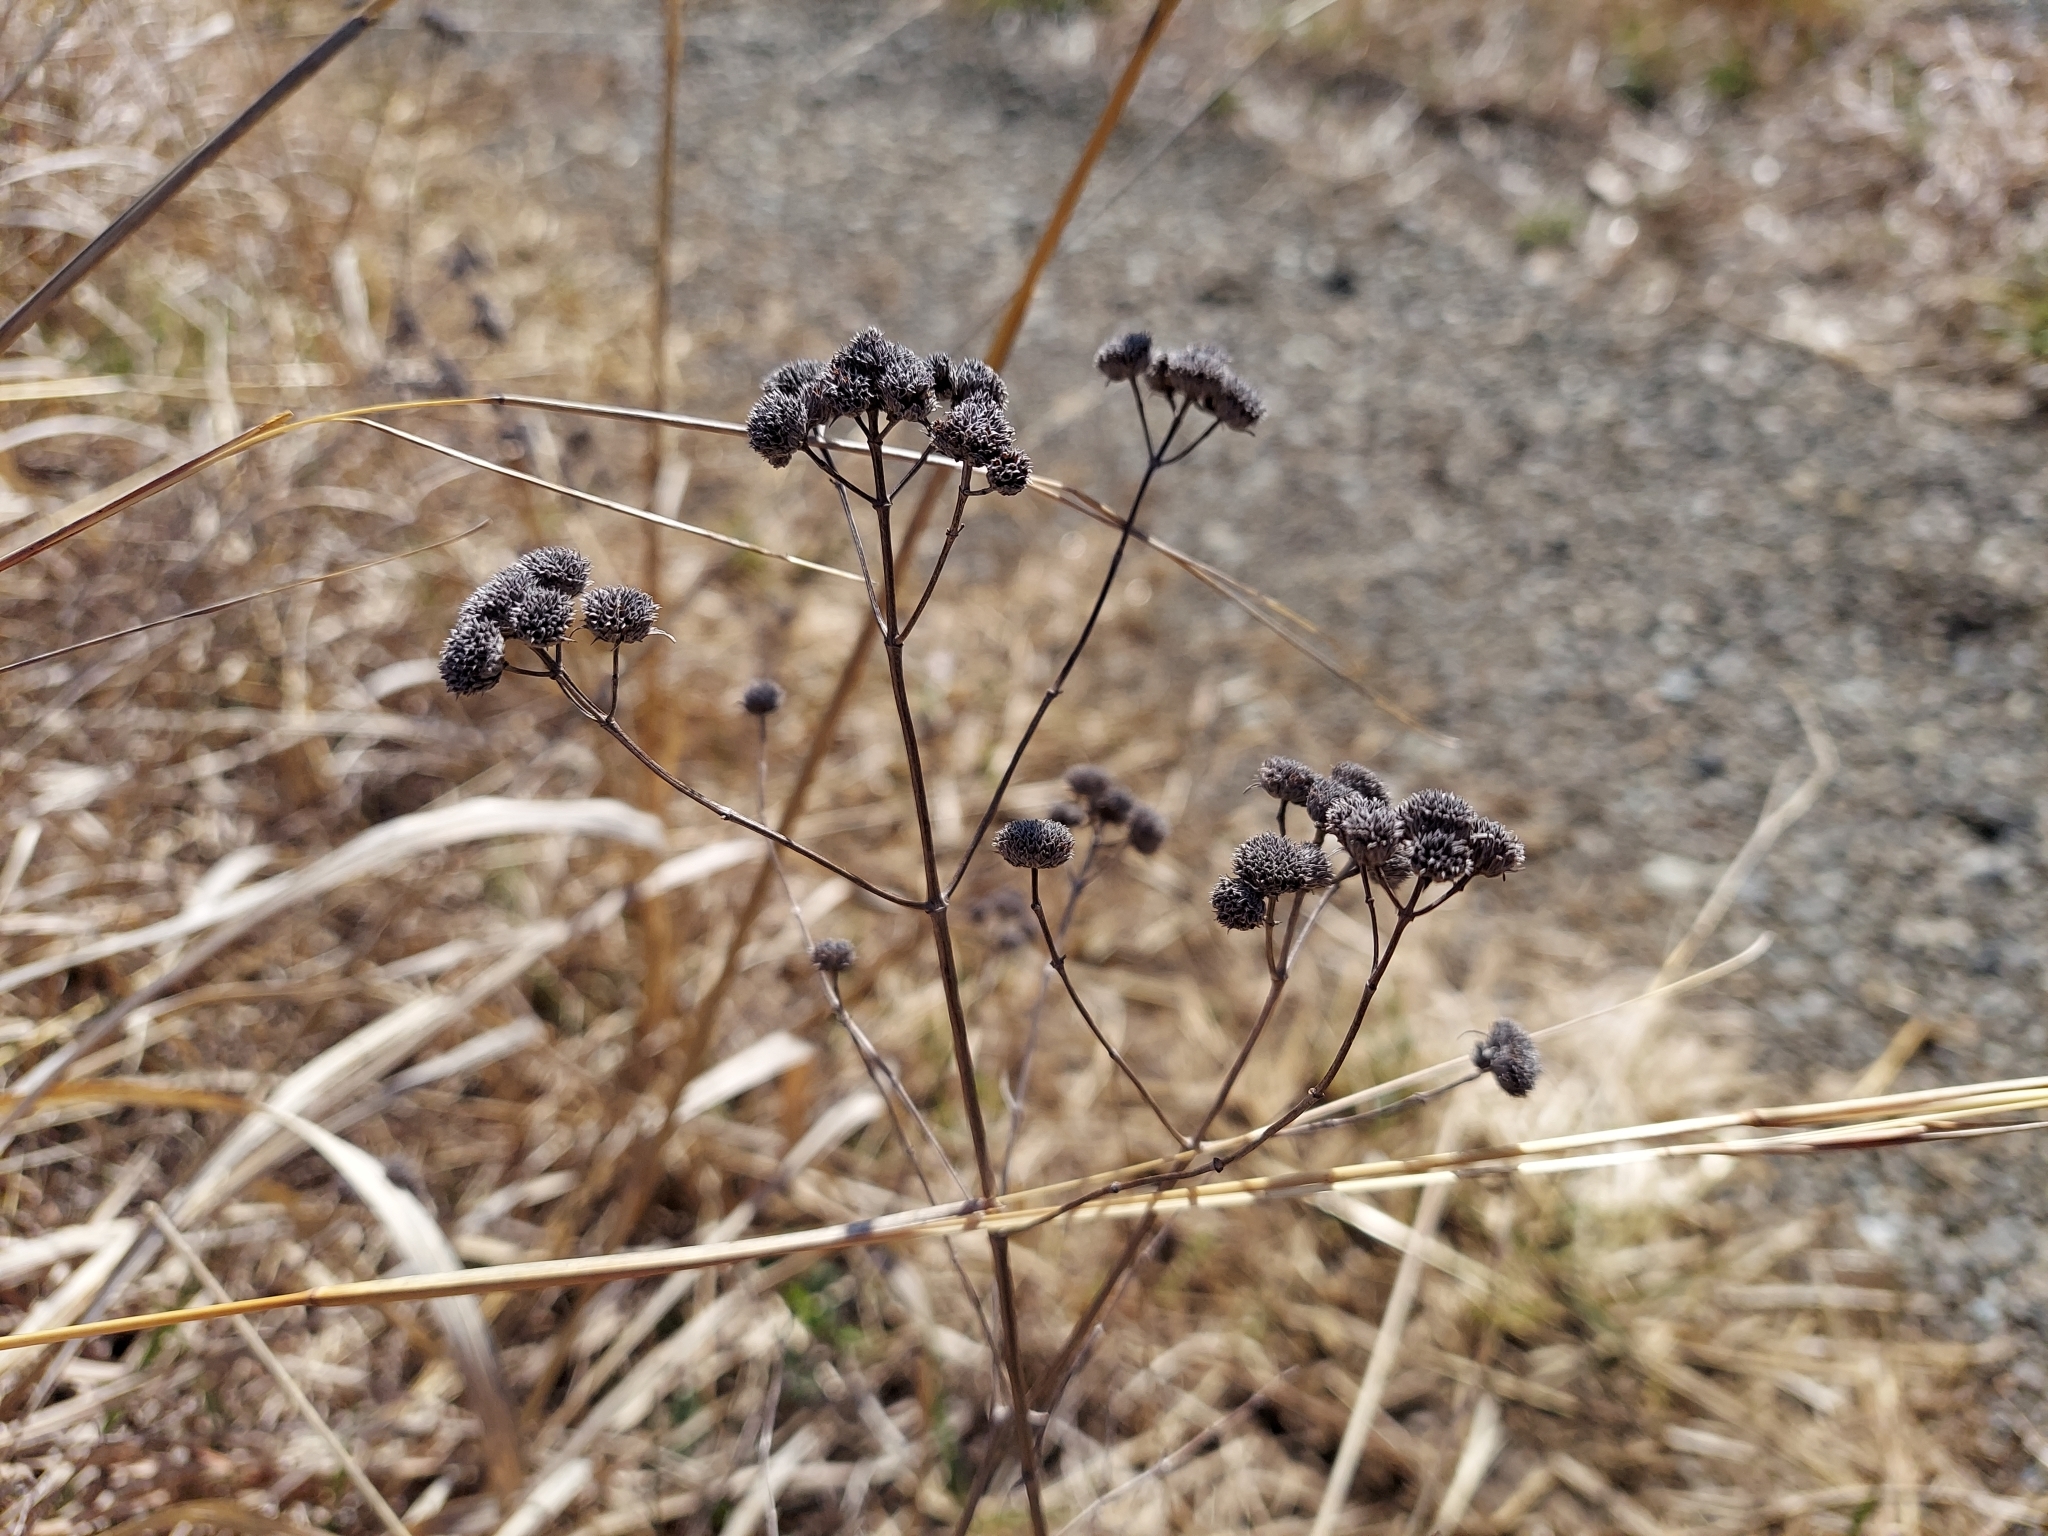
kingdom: Plantae
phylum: Tracheophyta
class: Magnoliopsida
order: Lamiales
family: Lamiaceae
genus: Pycnanthemum
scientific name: Pycnanthemum virginianum
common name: Virginia mountain-mint
